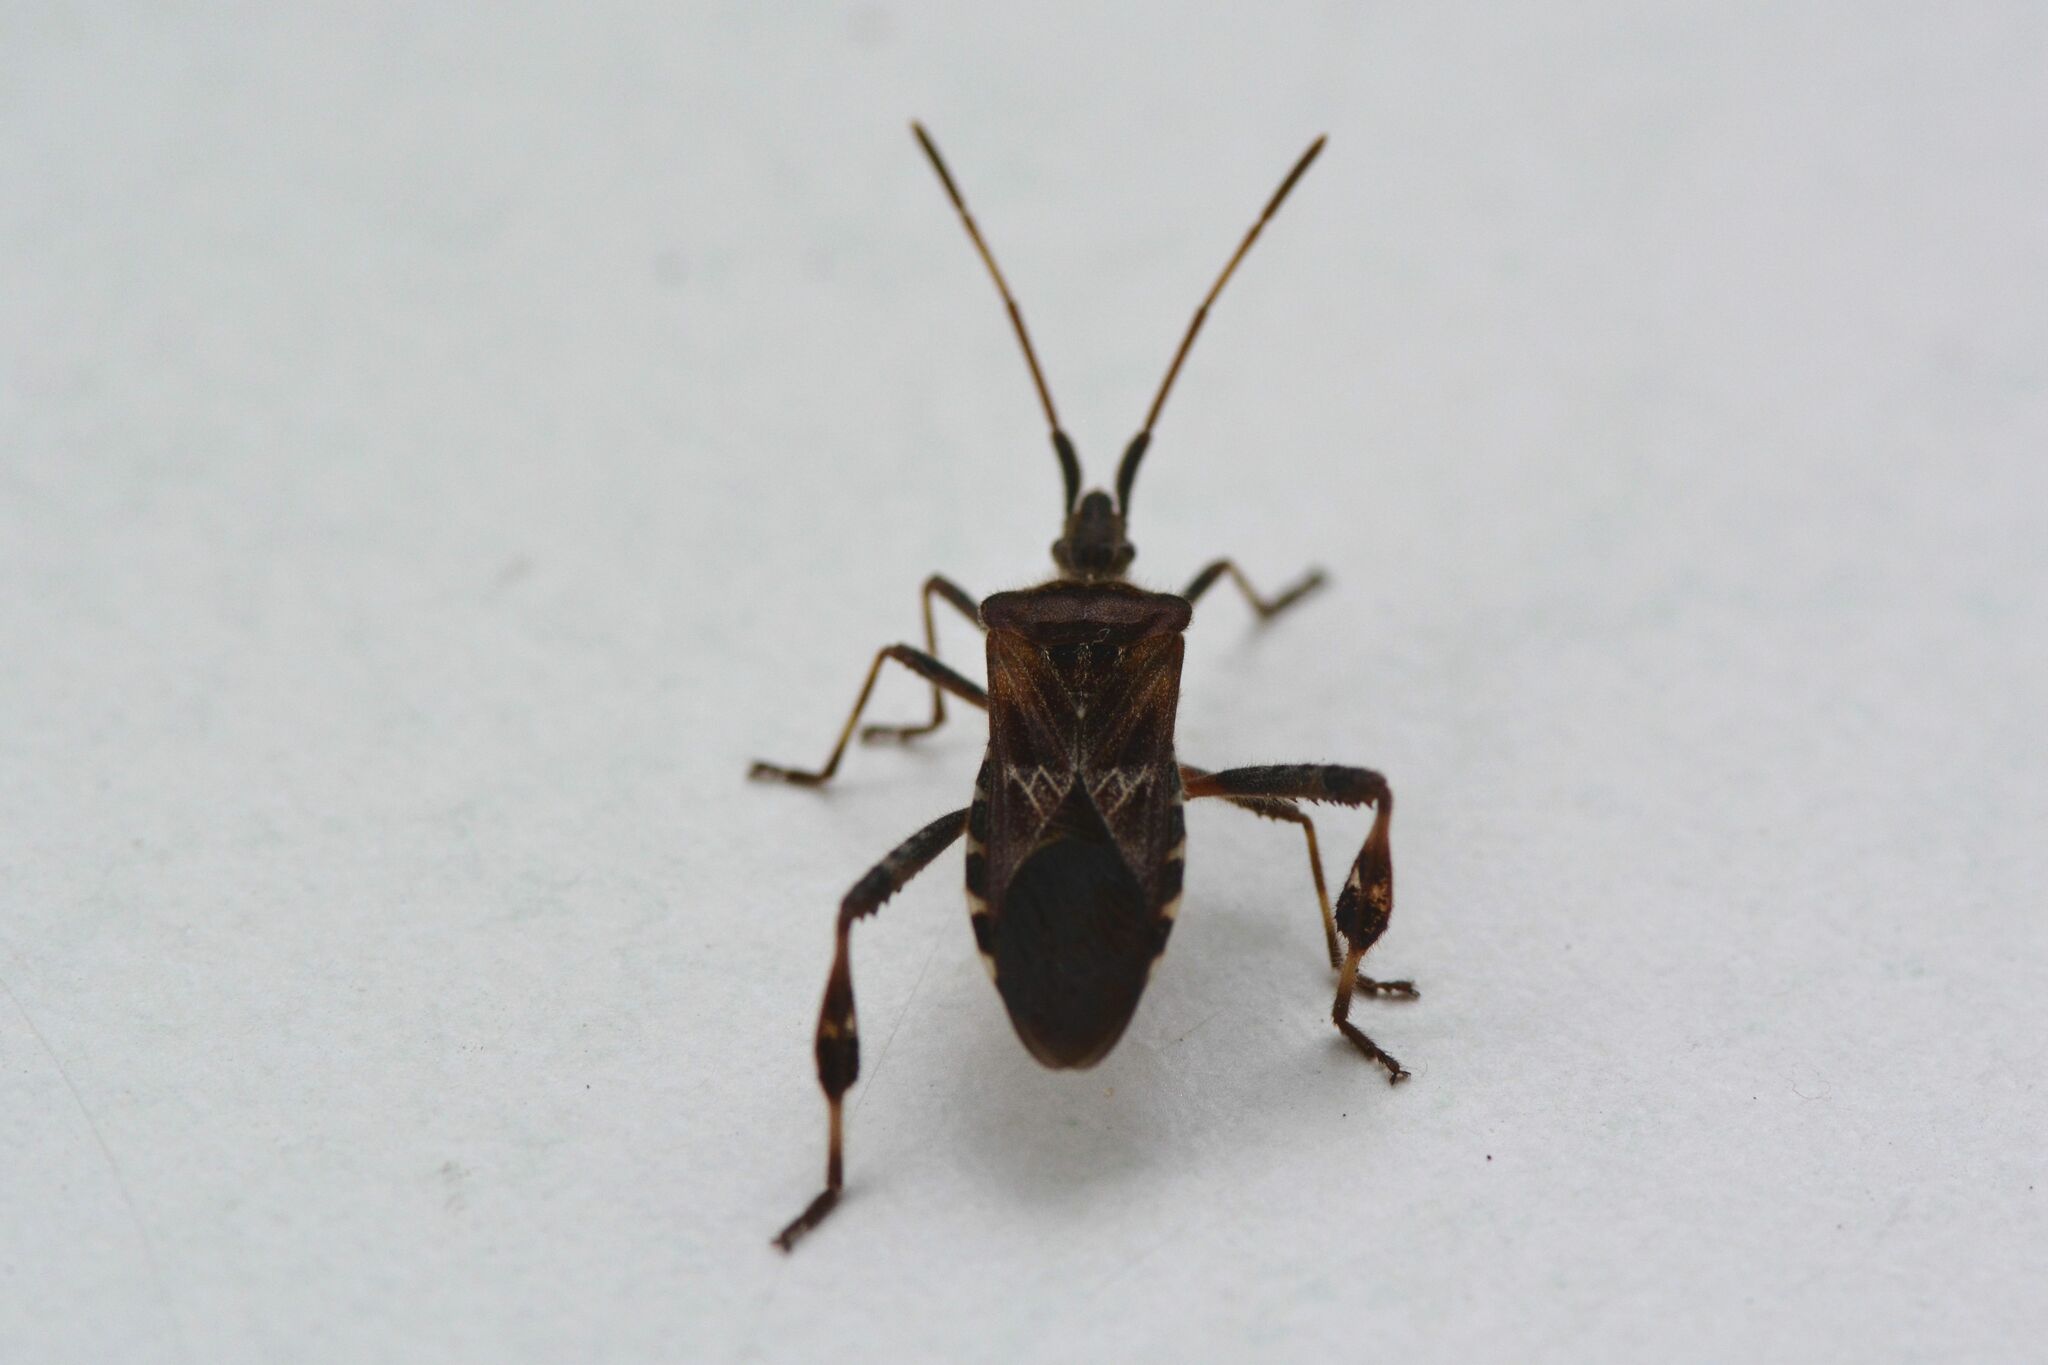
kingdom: Animalia
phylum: Arthropoda
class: Insecta
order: Hemiptera
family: Coreidae
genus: Leptoglossus
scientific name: Leptoglossus occidentalis
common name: Western conifer-seed bug
